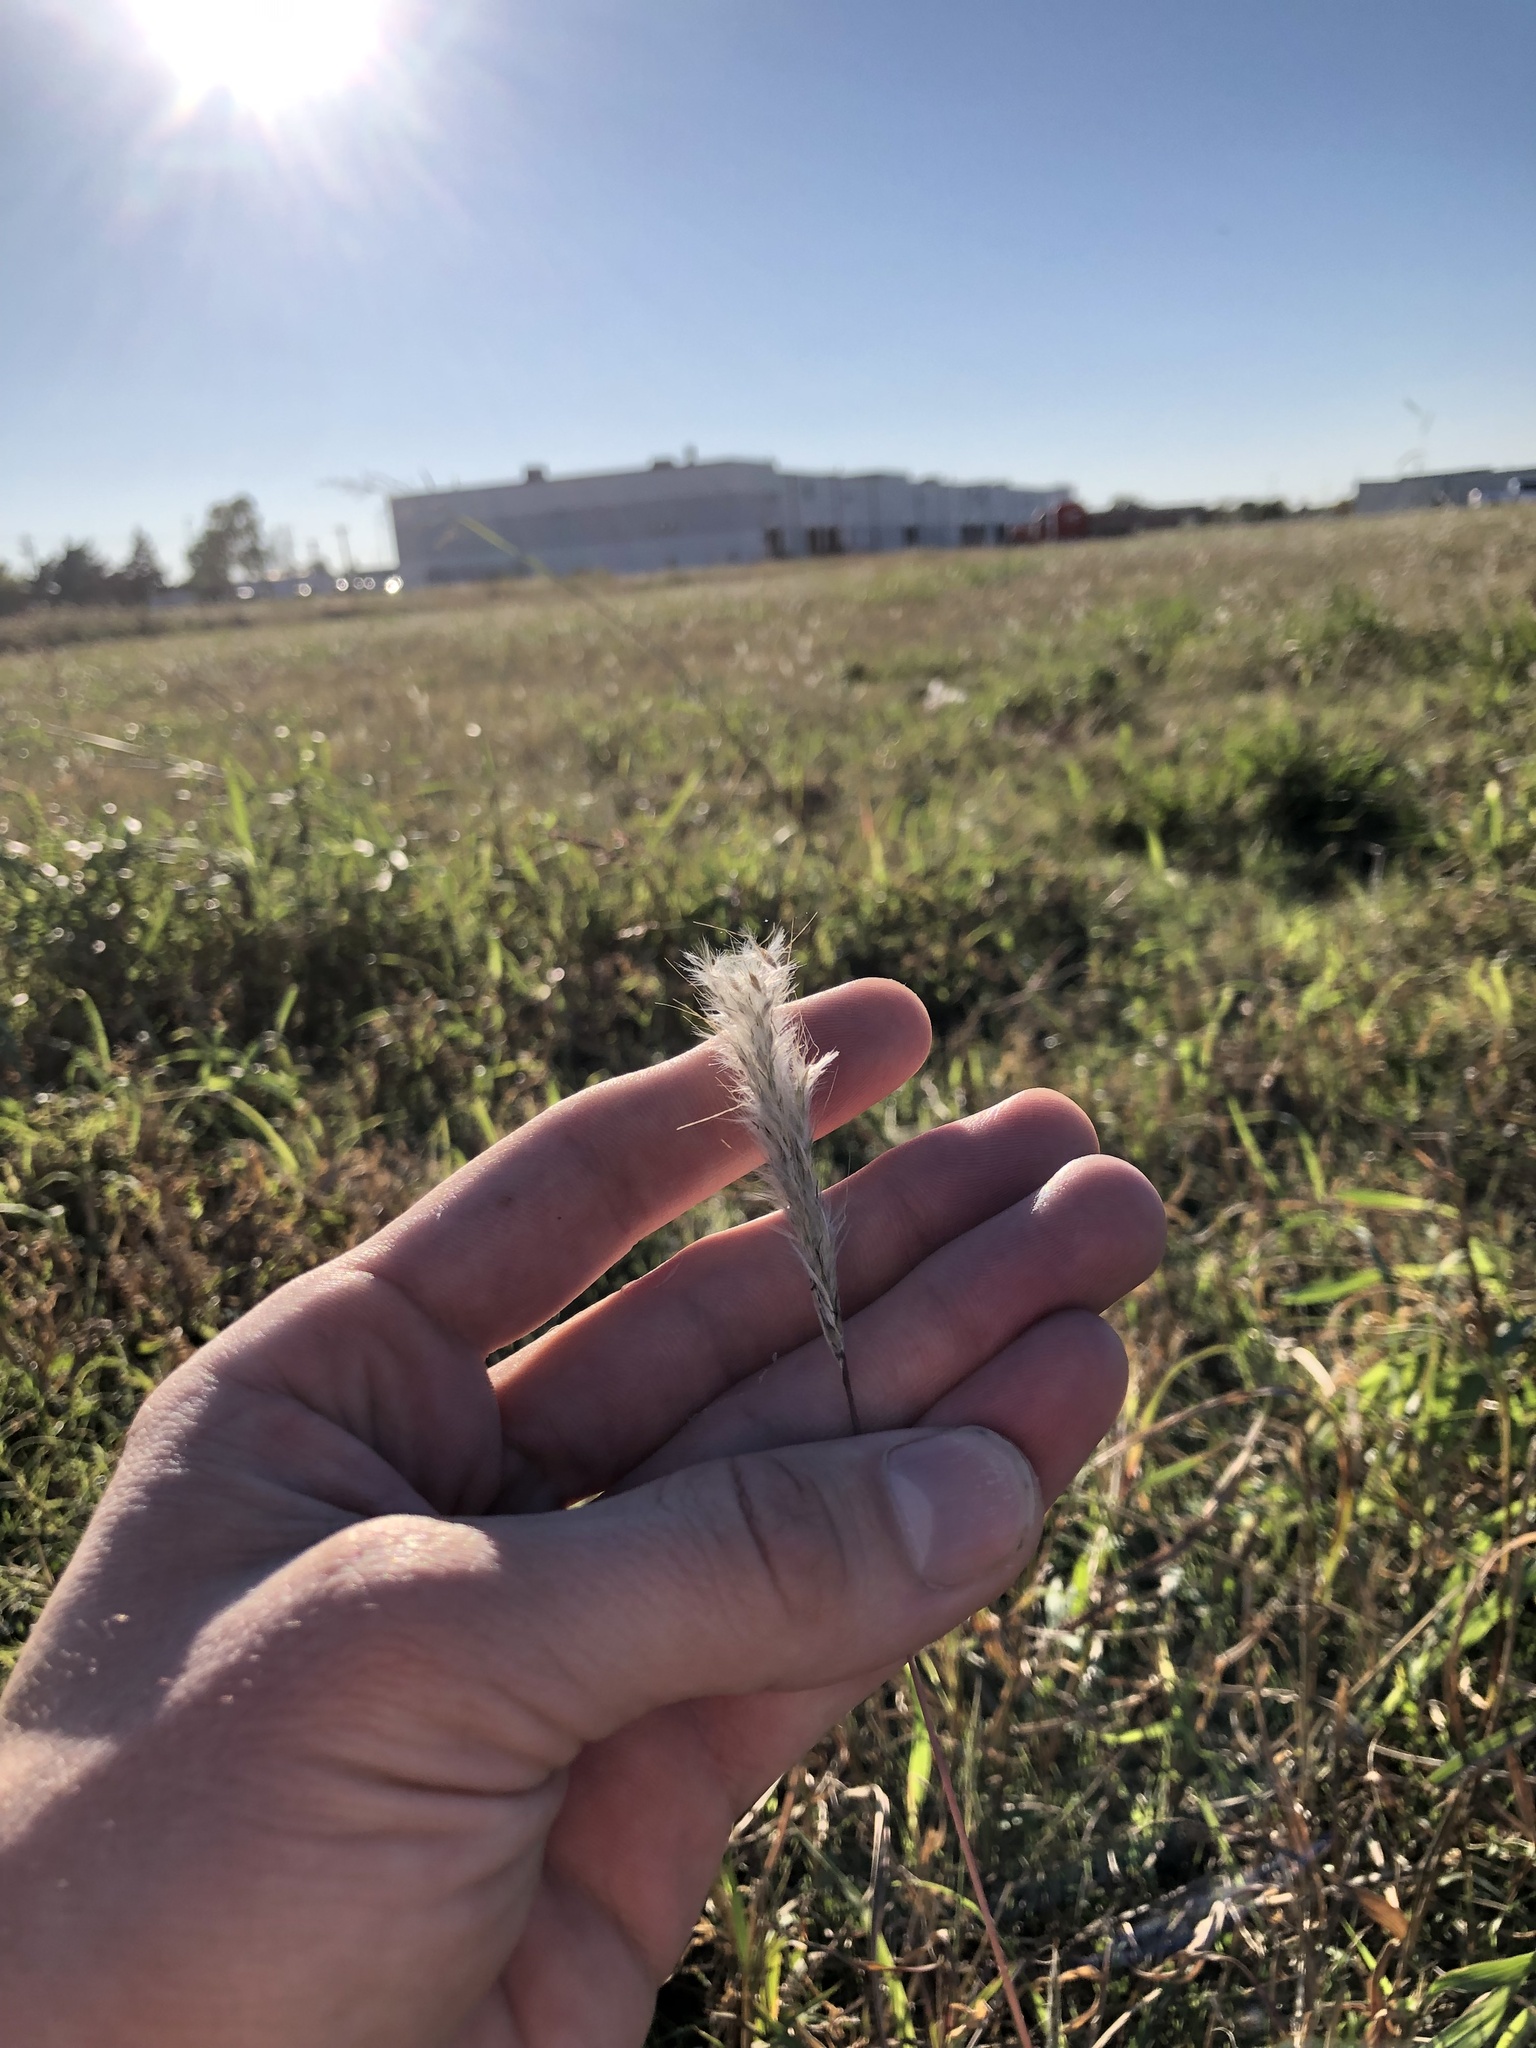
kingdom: Plantae
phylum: Tracheophyta
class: Liliopsida
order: Poales
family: Poaceae
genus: Bothriochloa
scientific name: Bothriochloa torreyana
